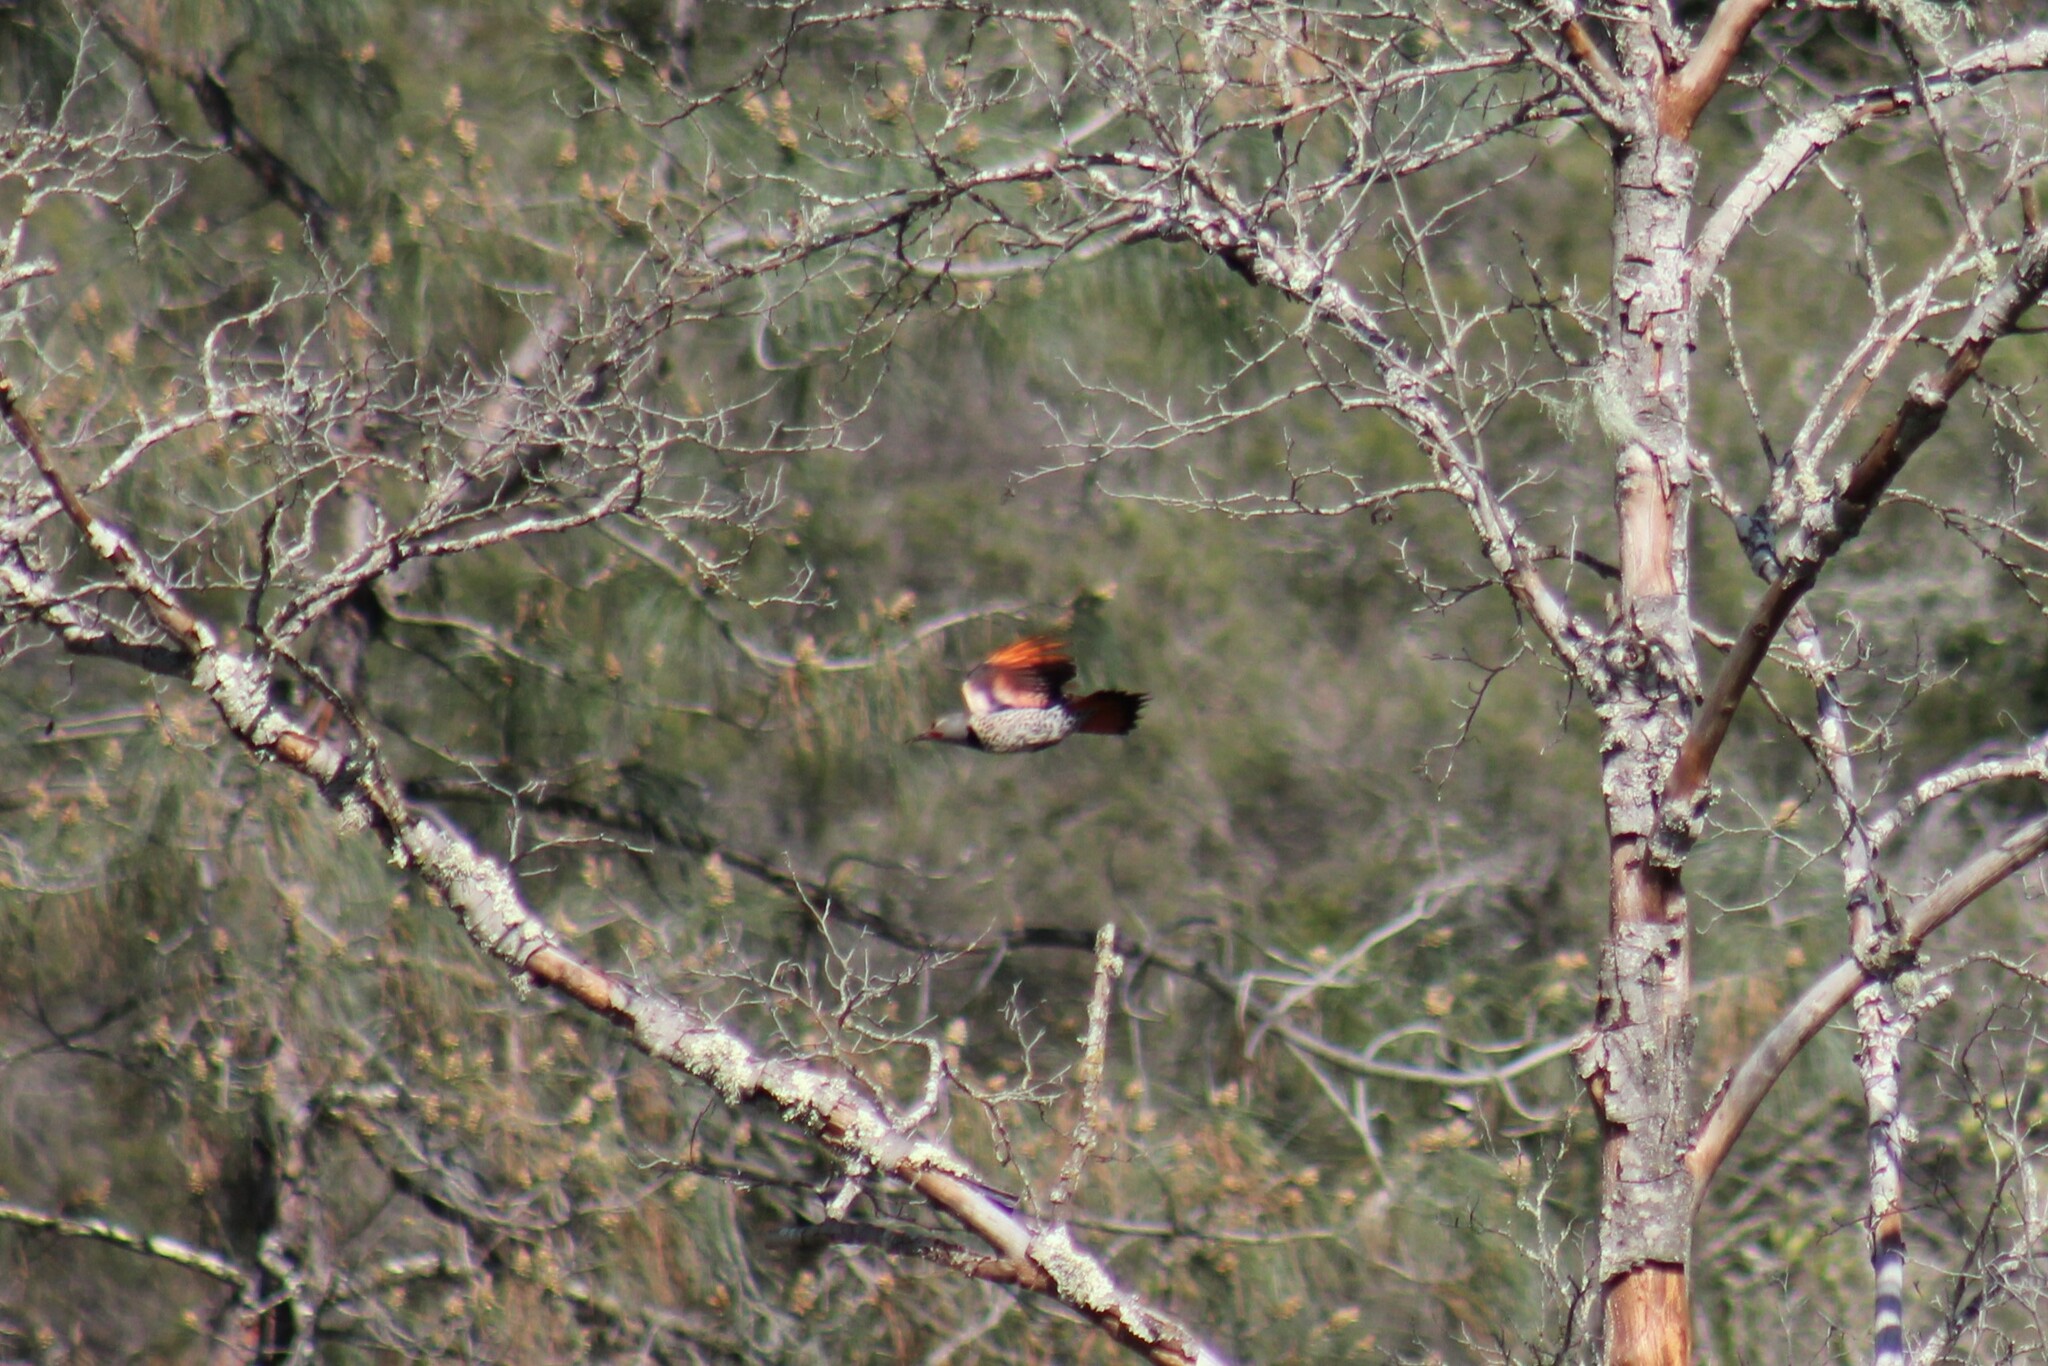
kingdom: Animalia
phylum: Chordata
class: Aves
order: Piciformes
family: Picidae
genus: Colaptes
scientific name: Colaptes auratus
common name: Northern flicker
